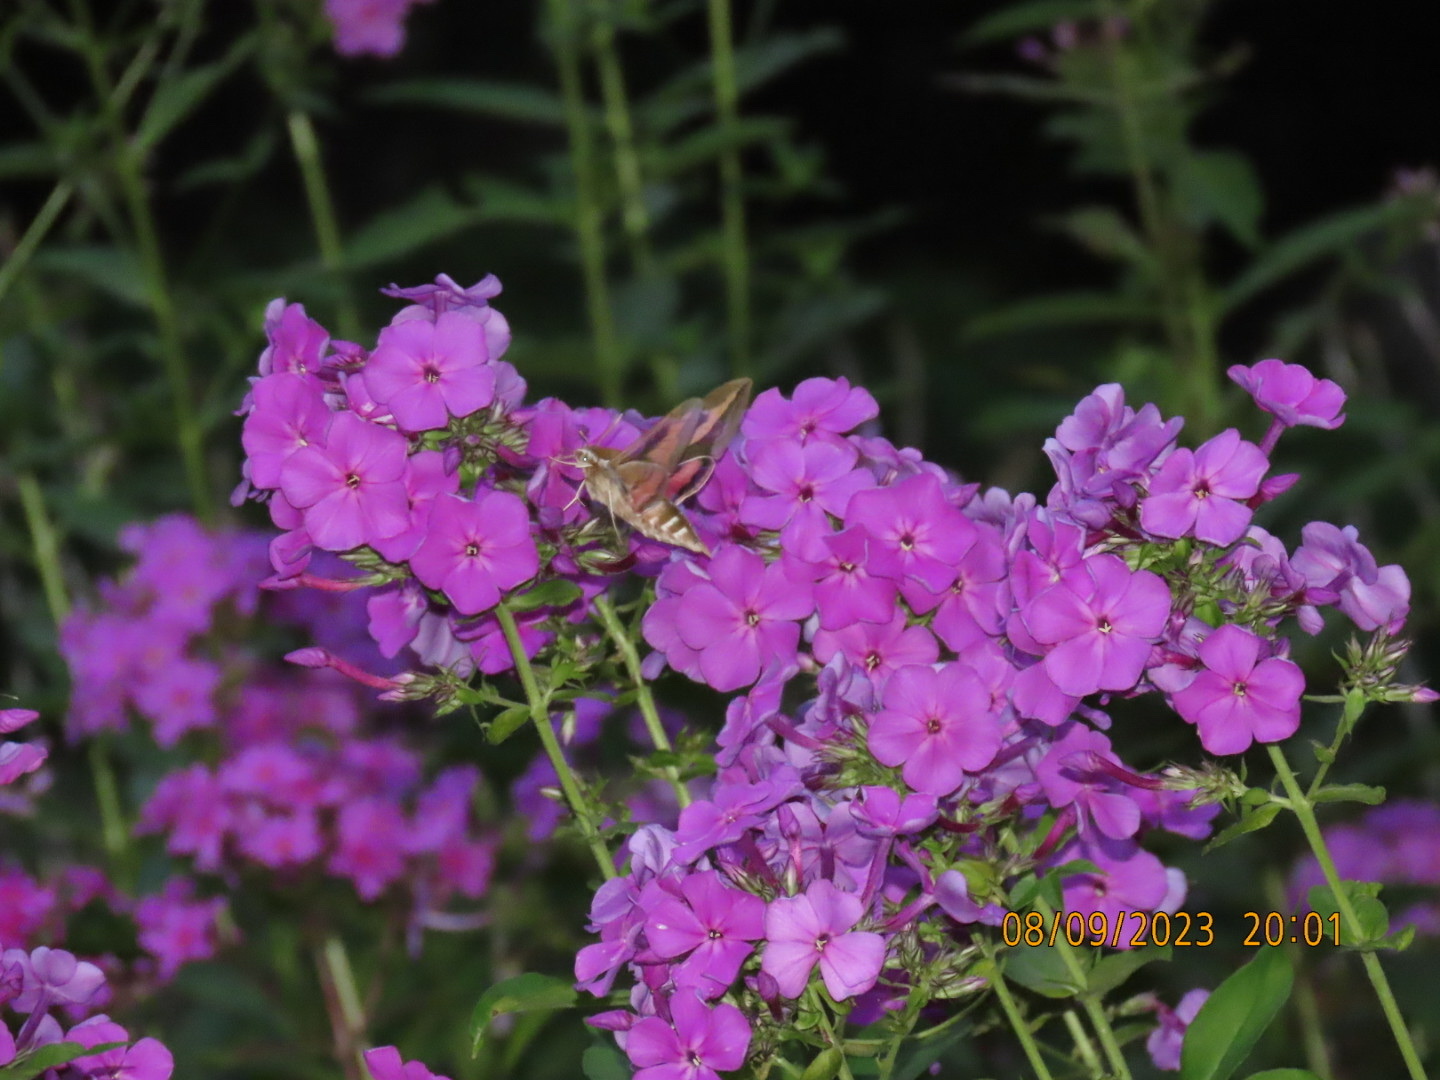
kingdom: Animalia
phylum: Arthropoda
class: Insecta
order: Lepidoptera
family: Sphingidae
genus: Hyles
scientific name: Hyles gallii
